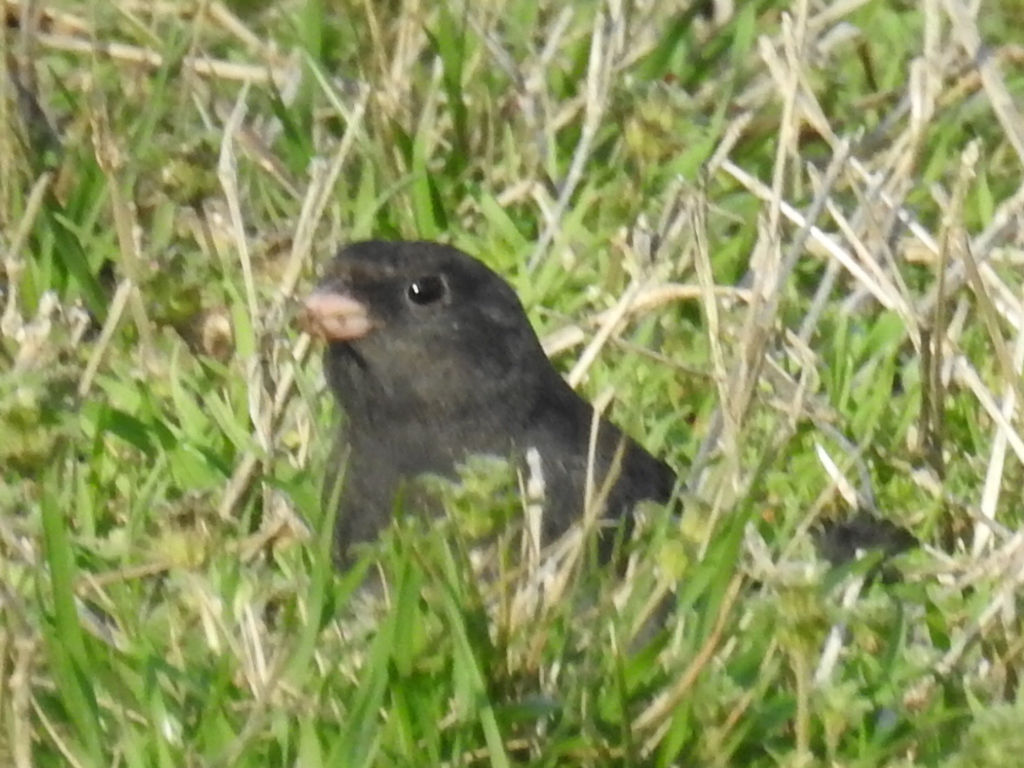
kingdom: Animalia
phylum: Chordata
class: Aves
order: Passeriformes
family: Passerellidae
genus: Junco
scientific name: Junco hyemalis
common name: Dark-eyed junco
